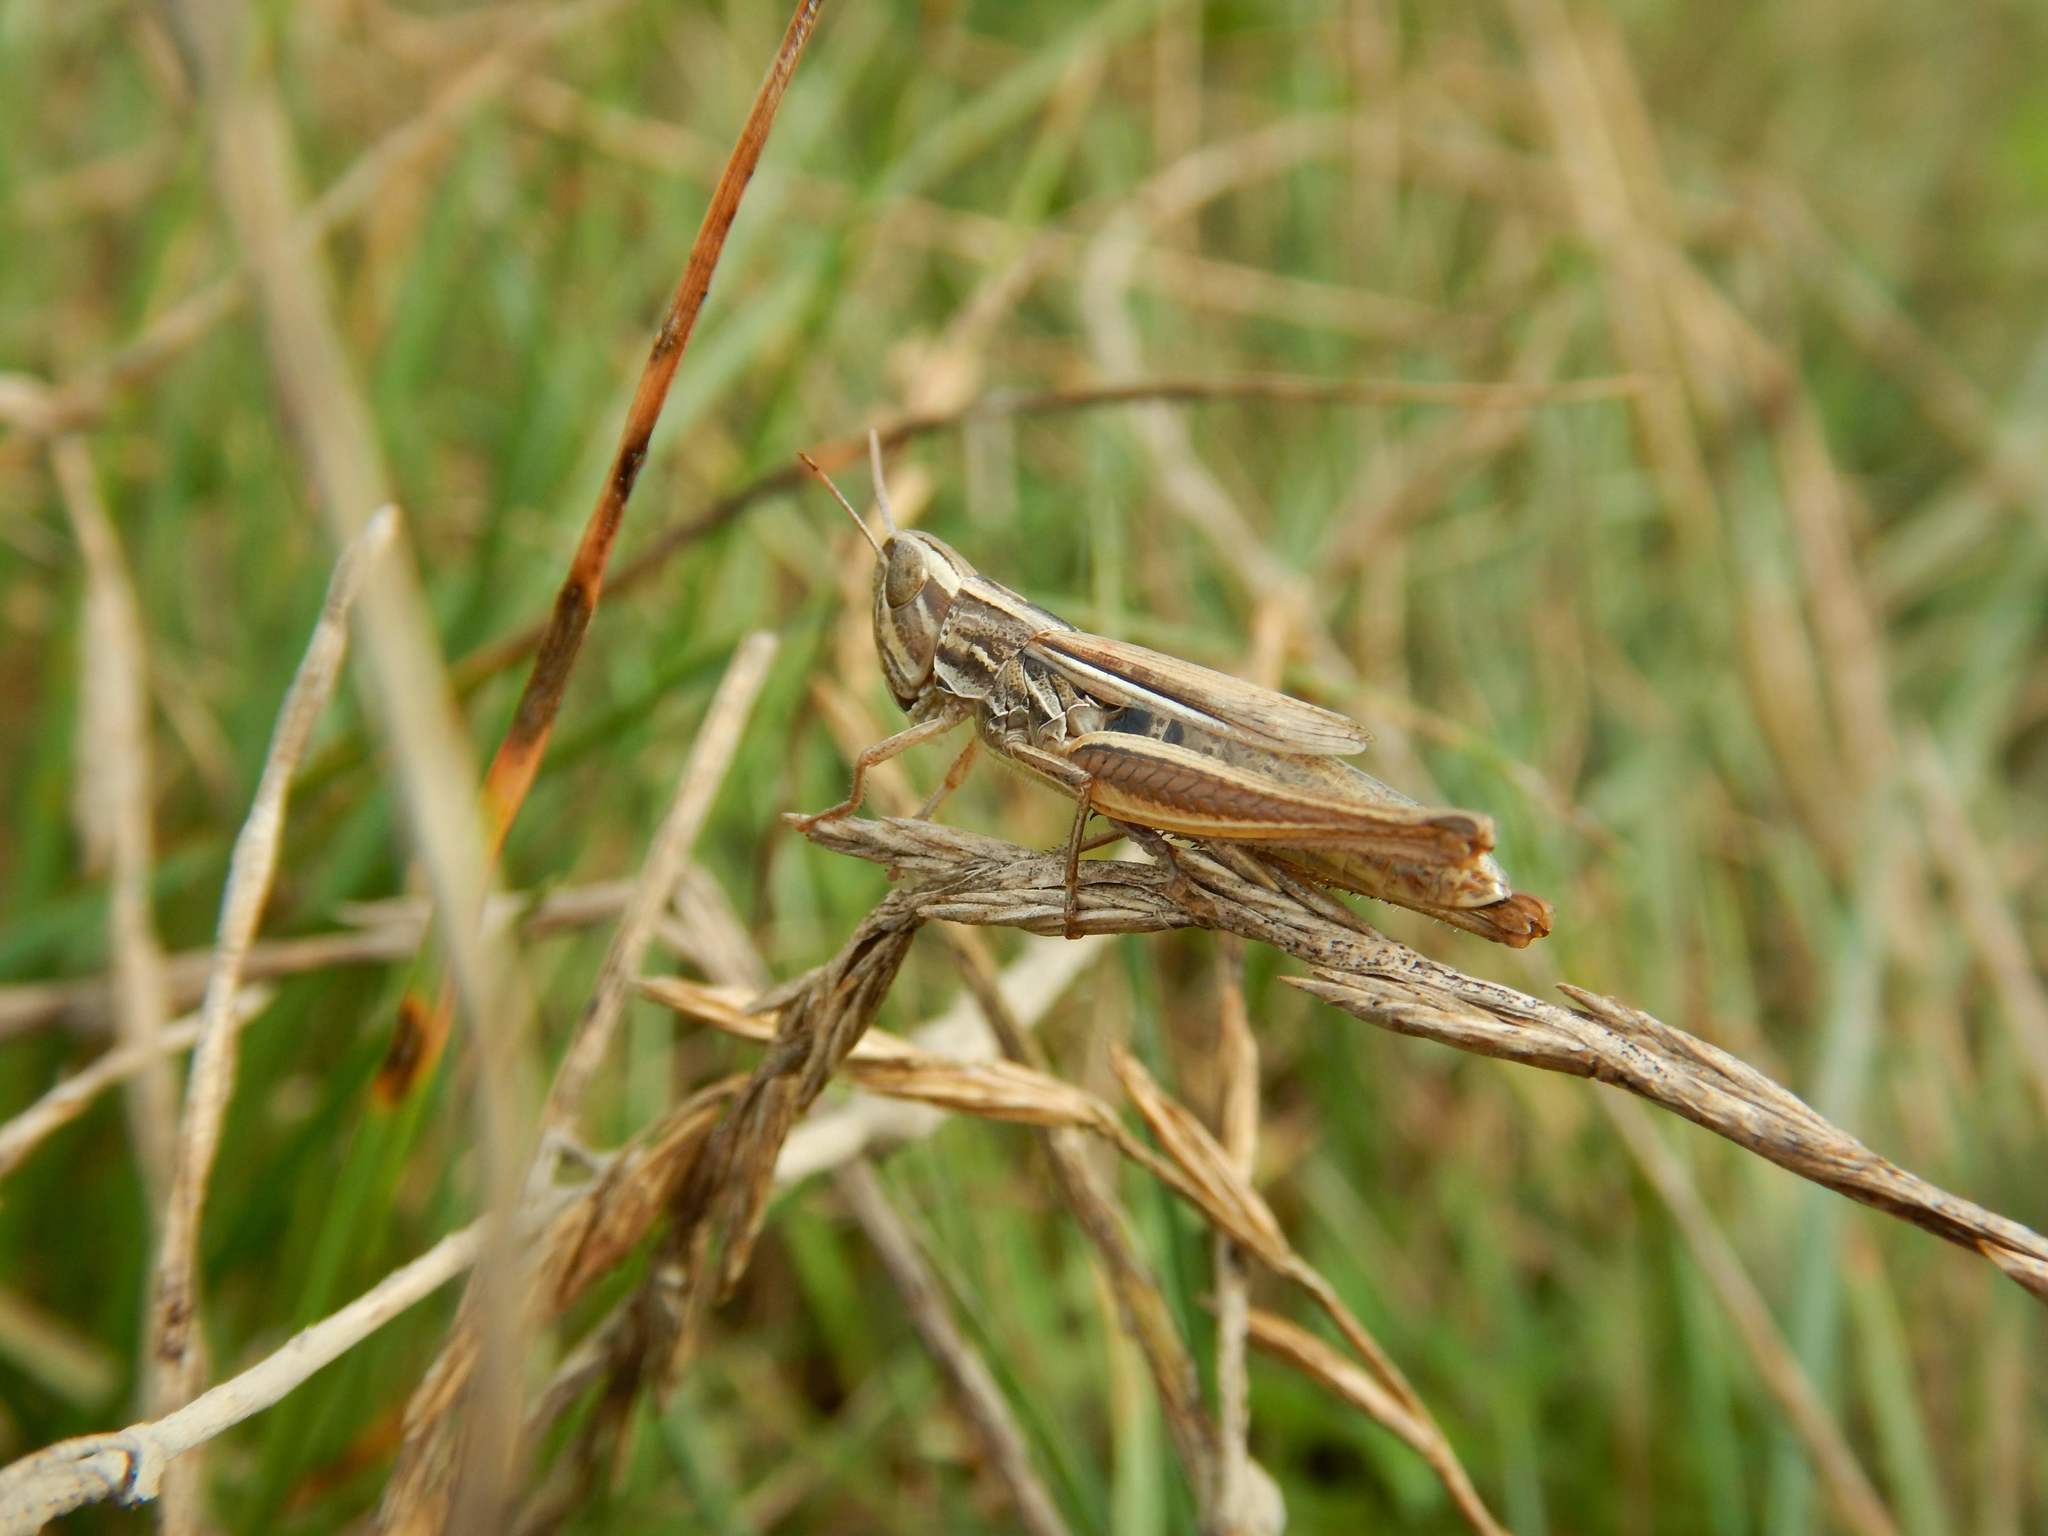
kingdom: Animalia
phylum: Arthropoda
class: Insecta
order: Orthoptera
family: Acrididae
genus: Euchorthippus
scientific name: Euchorthippus declivus
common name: Common straw grasshopper
